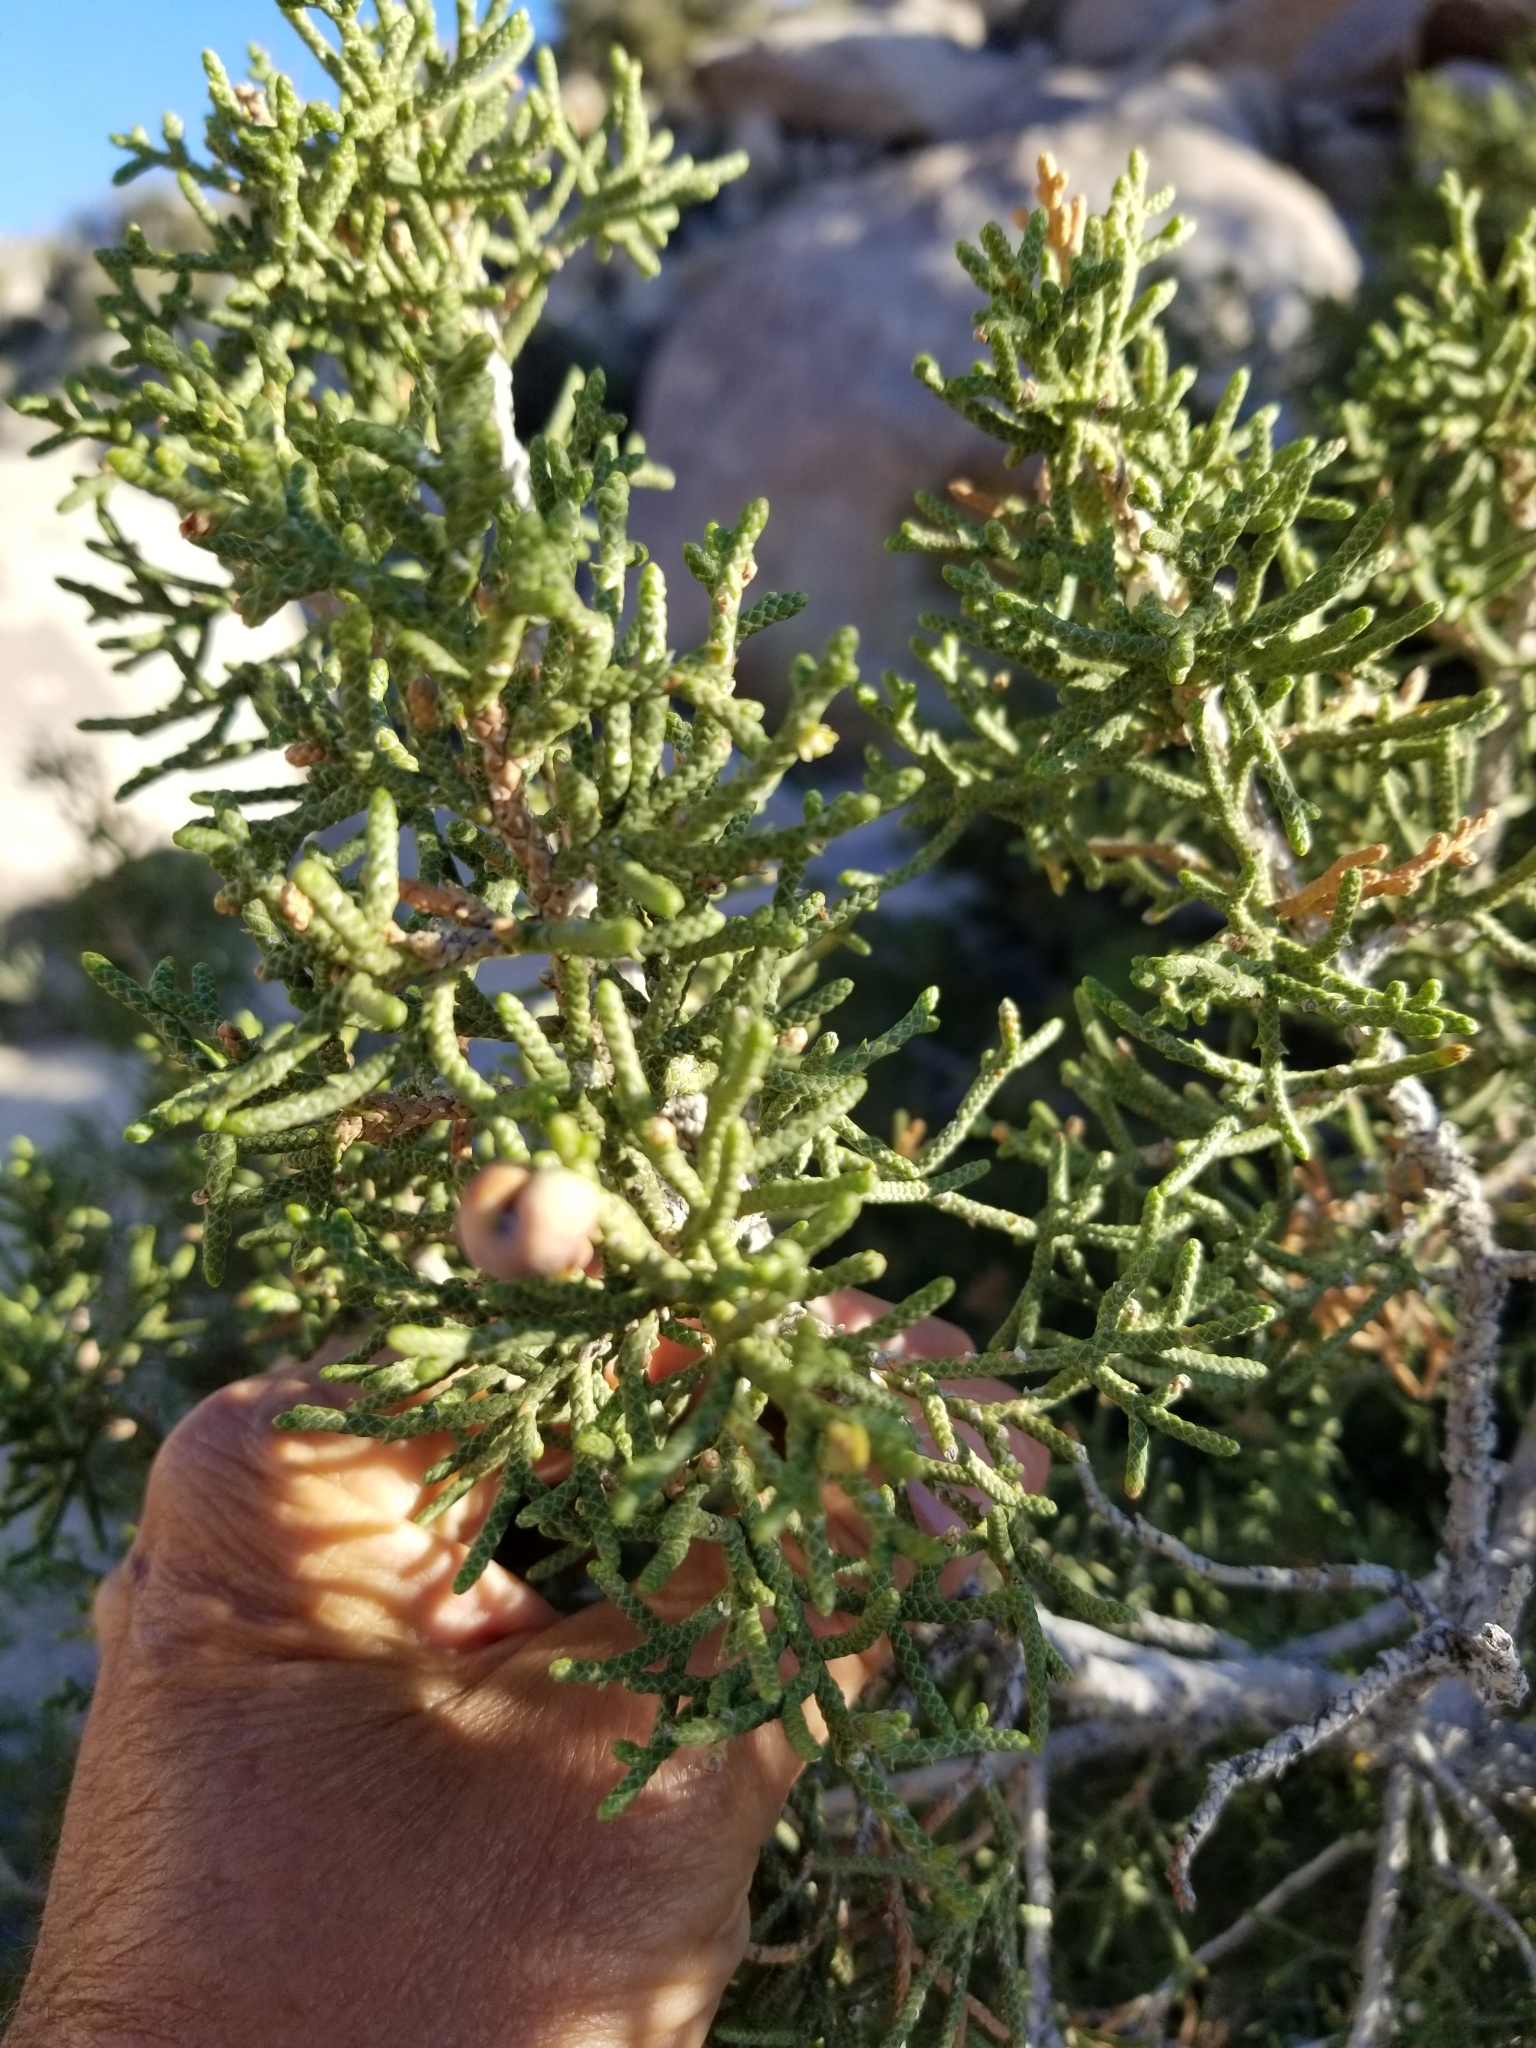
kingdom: Plantae
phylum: Tracheophyta
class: Pinopsida
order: Pinales
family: Cupressaceae
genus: Juniperus
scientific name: Juniperus californica
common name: California juniper
